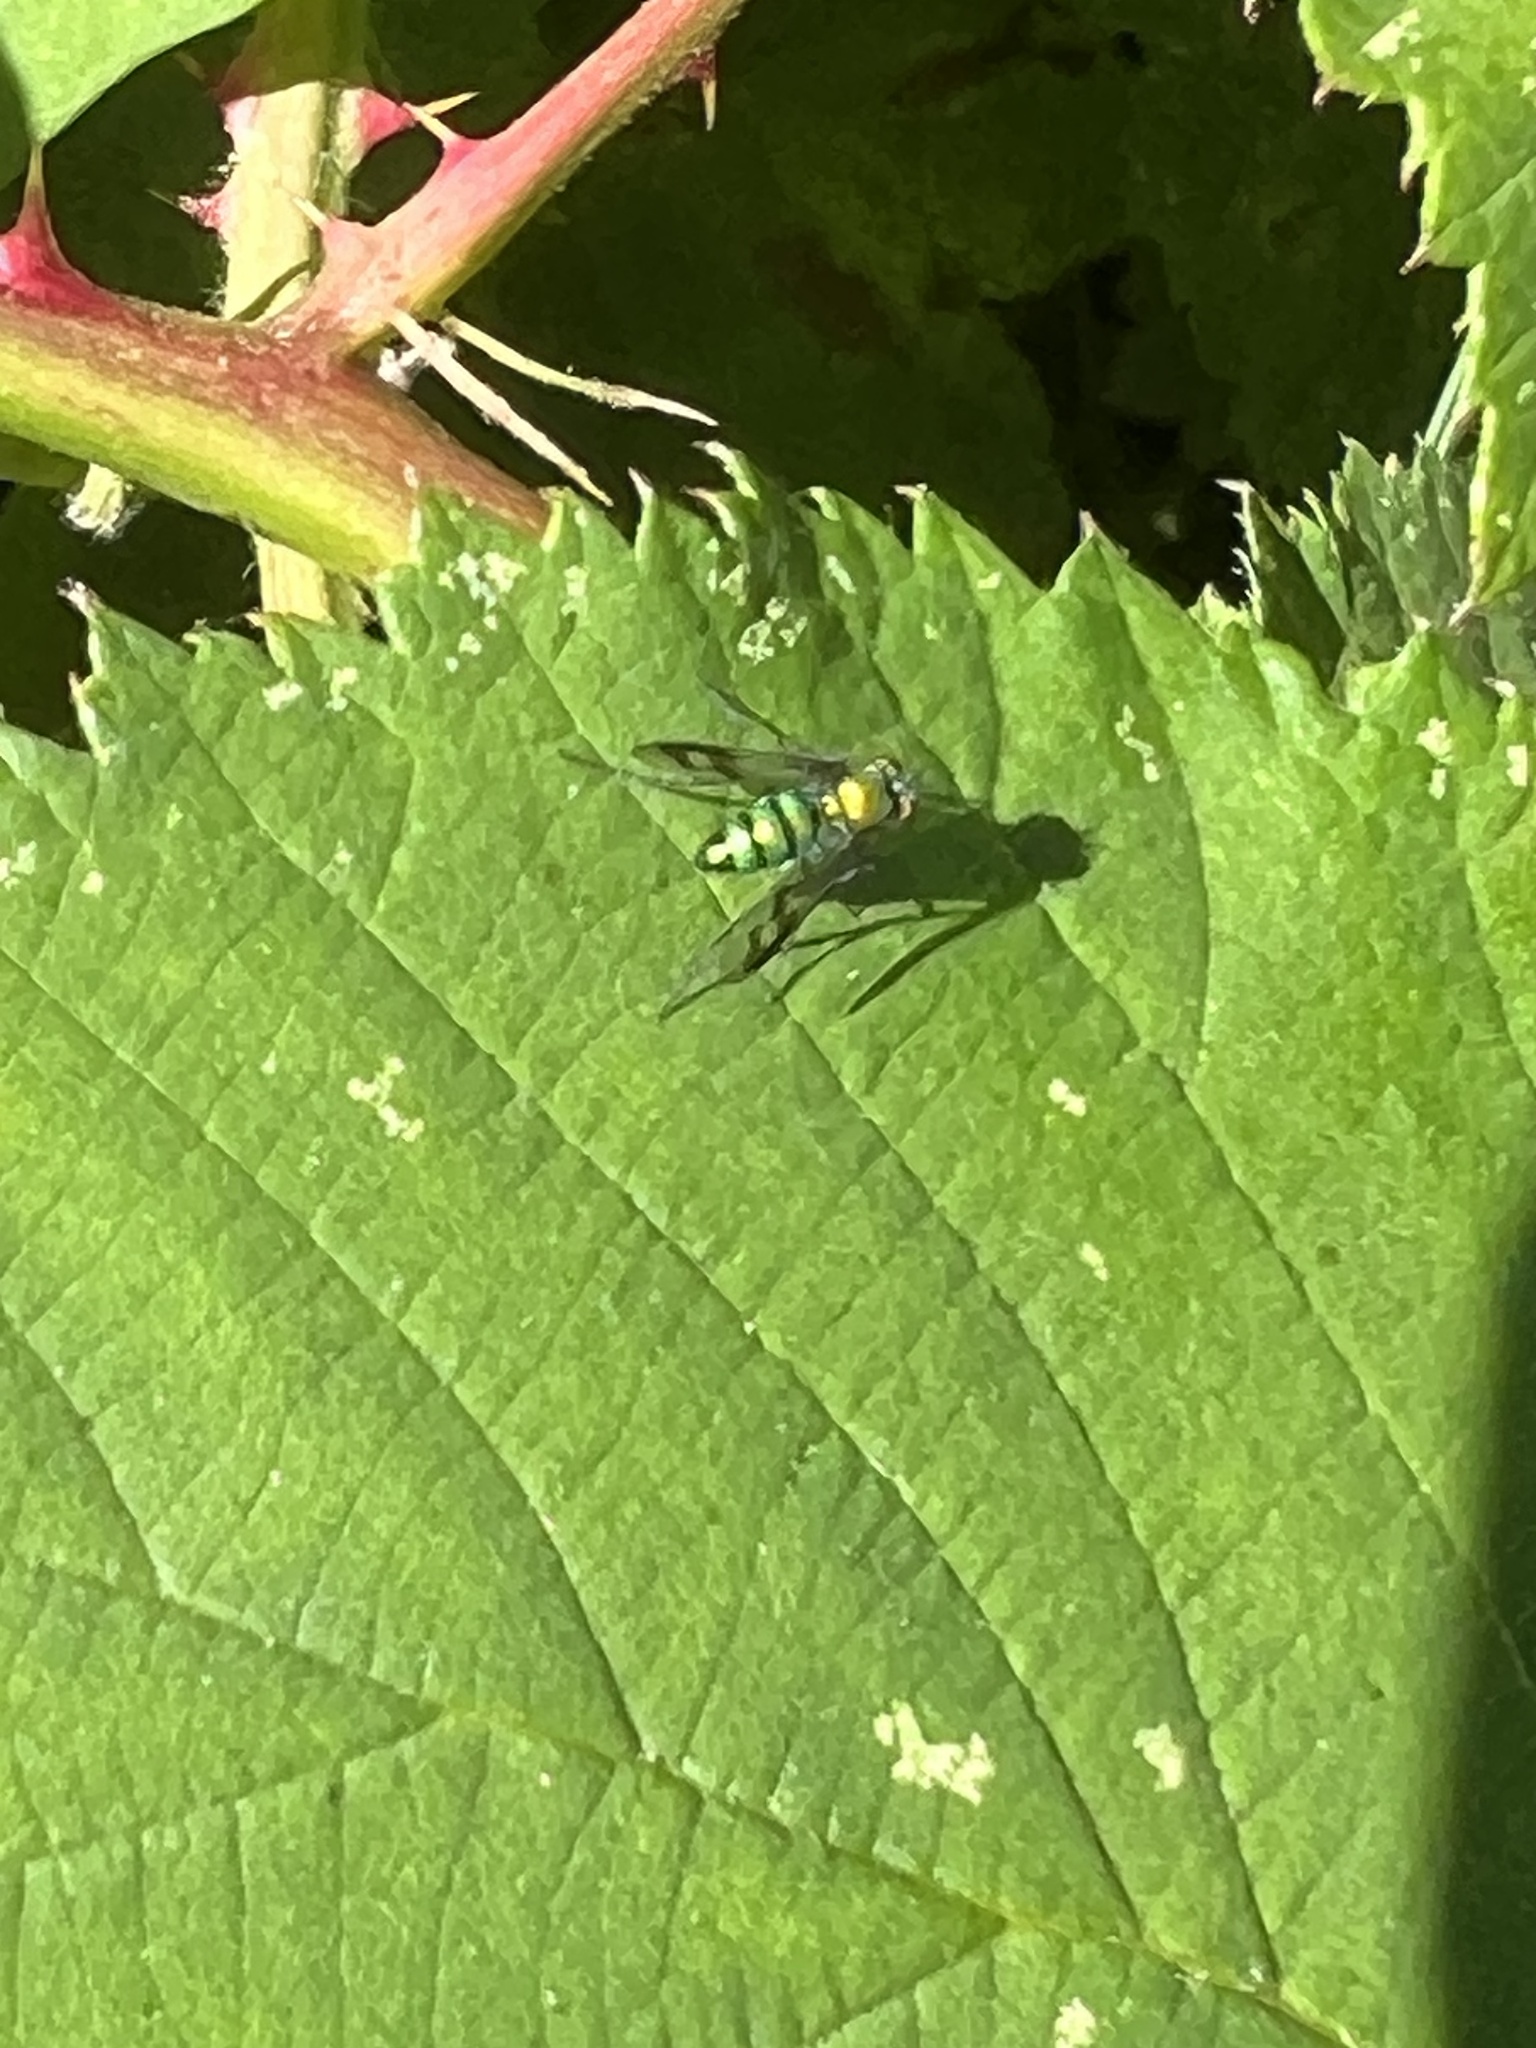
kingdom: Animalia
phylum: Arthropoda
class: Insecta
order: Diptera
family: Dolichopodidae
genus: Condylostylus
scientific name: Condylostylus occidentalis
